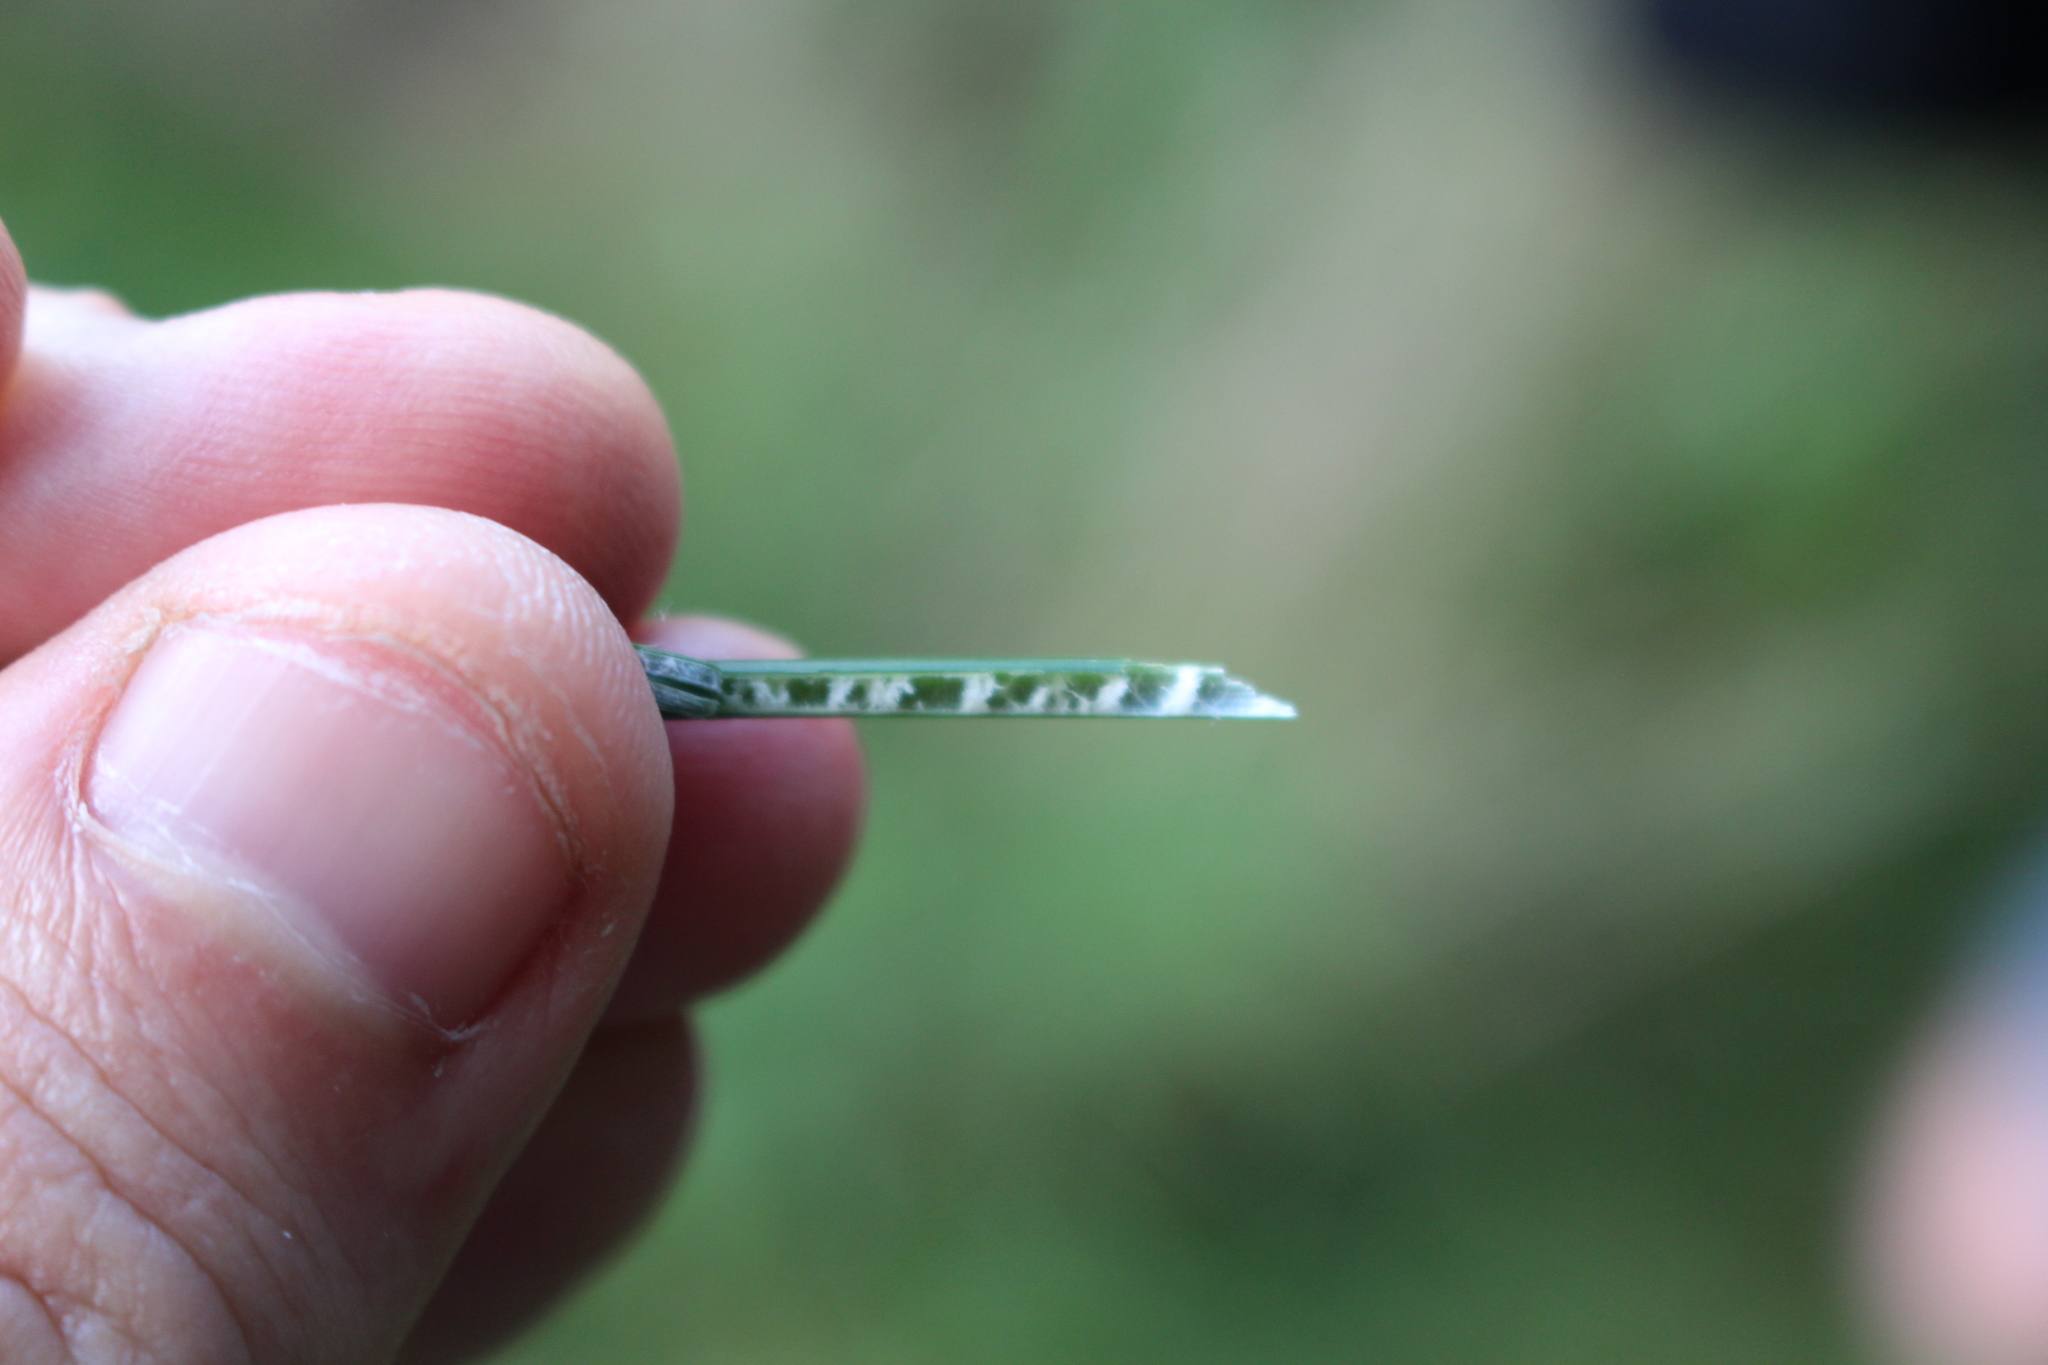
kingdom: Plantae
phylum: Tracheophyta
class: Liliopsida
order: Poales
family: Juncaceae
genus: Juncus
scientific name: Juncus sarophorus
